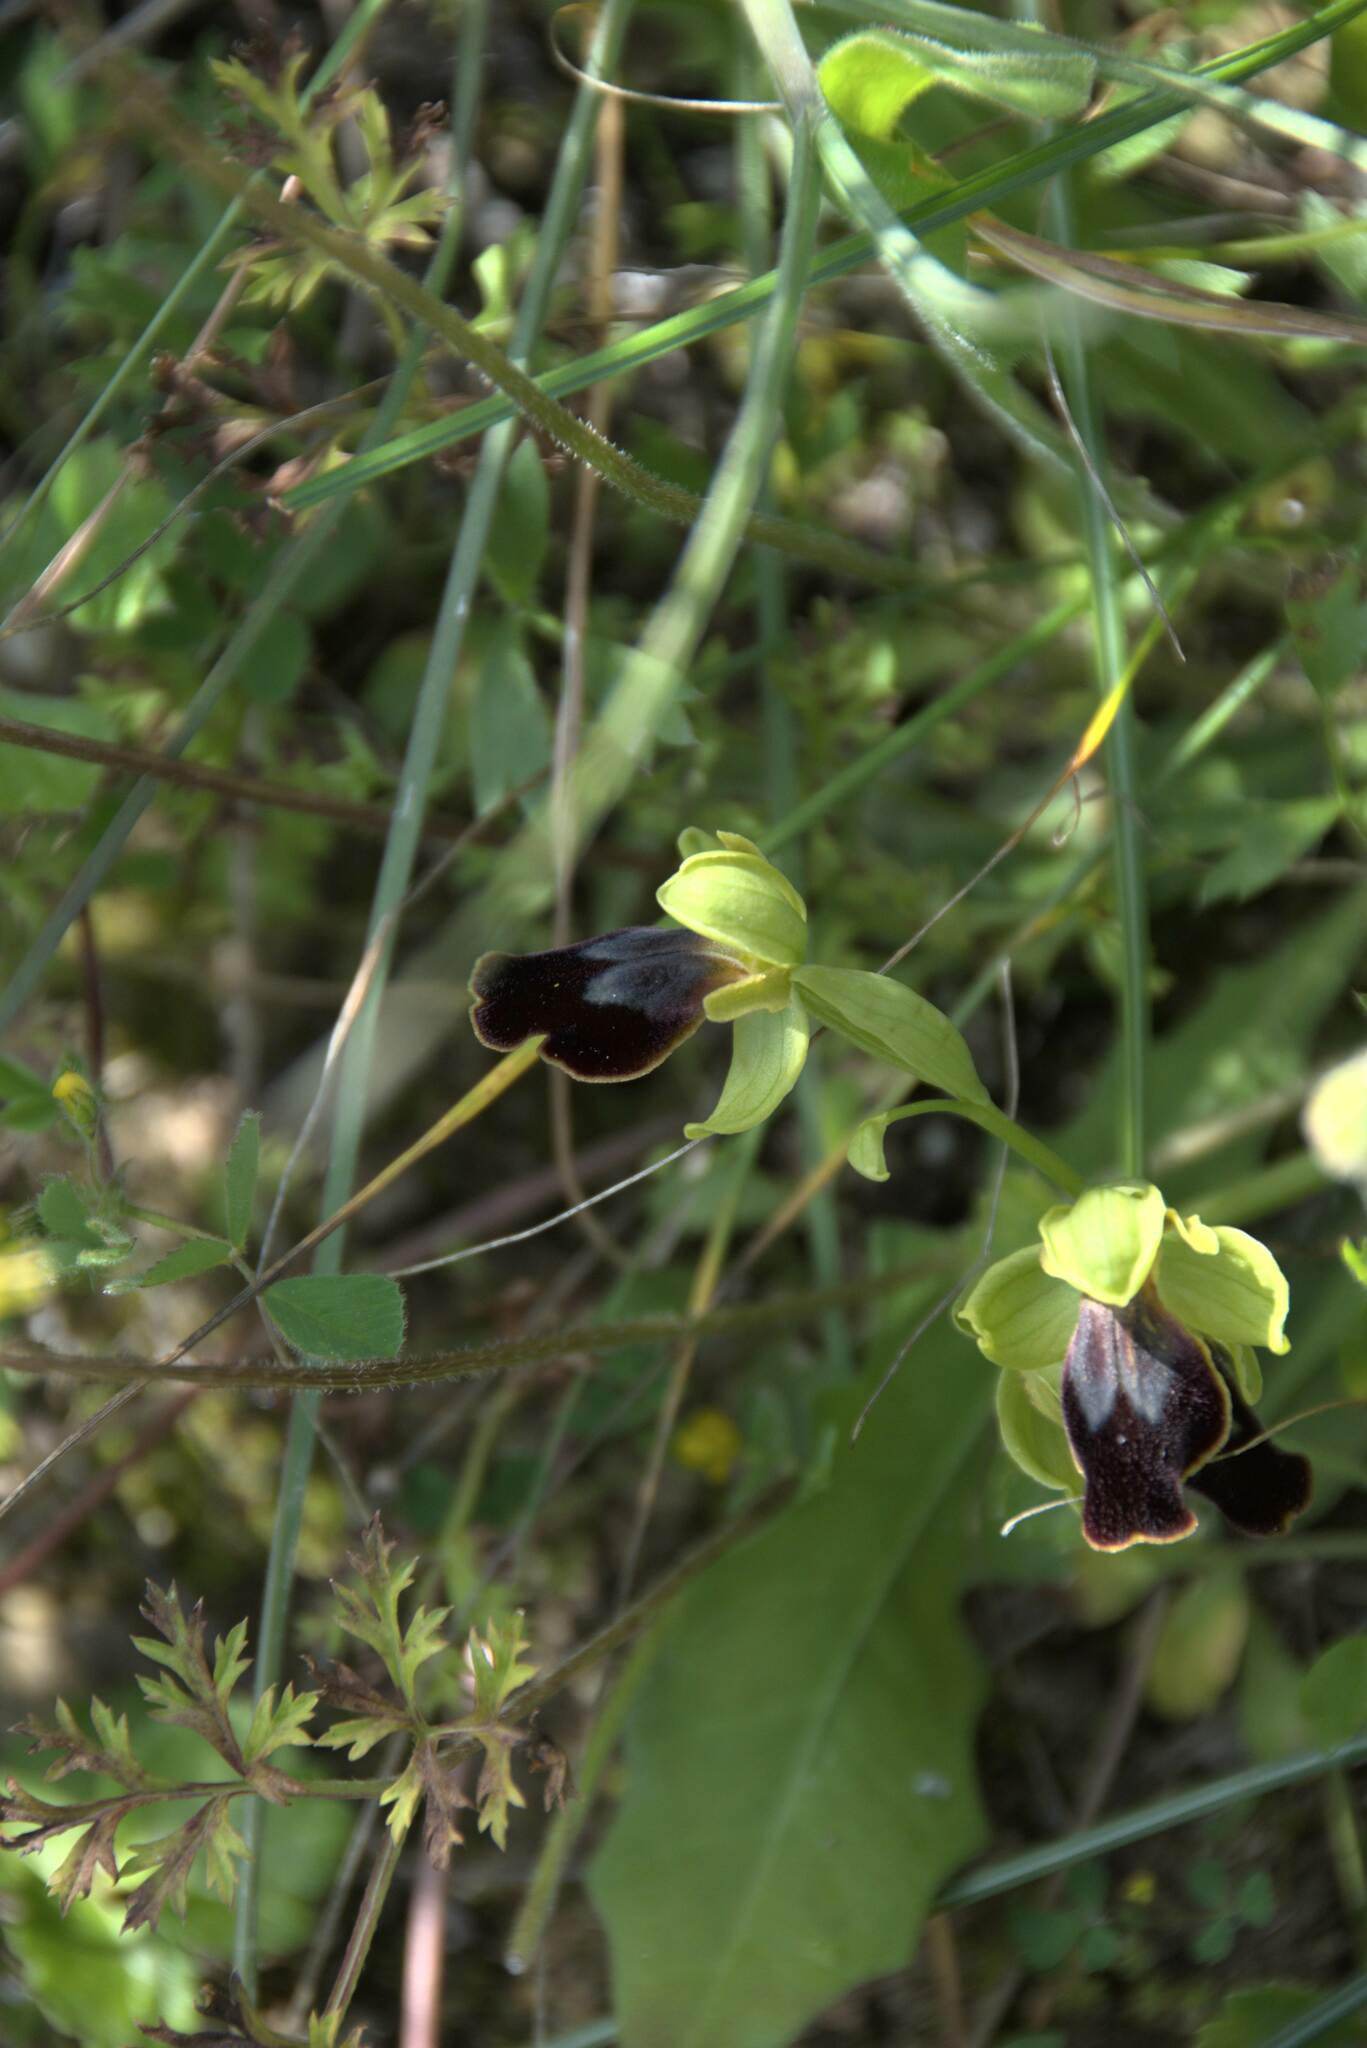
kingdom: Plantae
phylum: Tracheophyta
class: Liliopsida
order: Asparagales
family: Orchidaceae
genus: Ophrys
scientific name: Ophrys fusca
